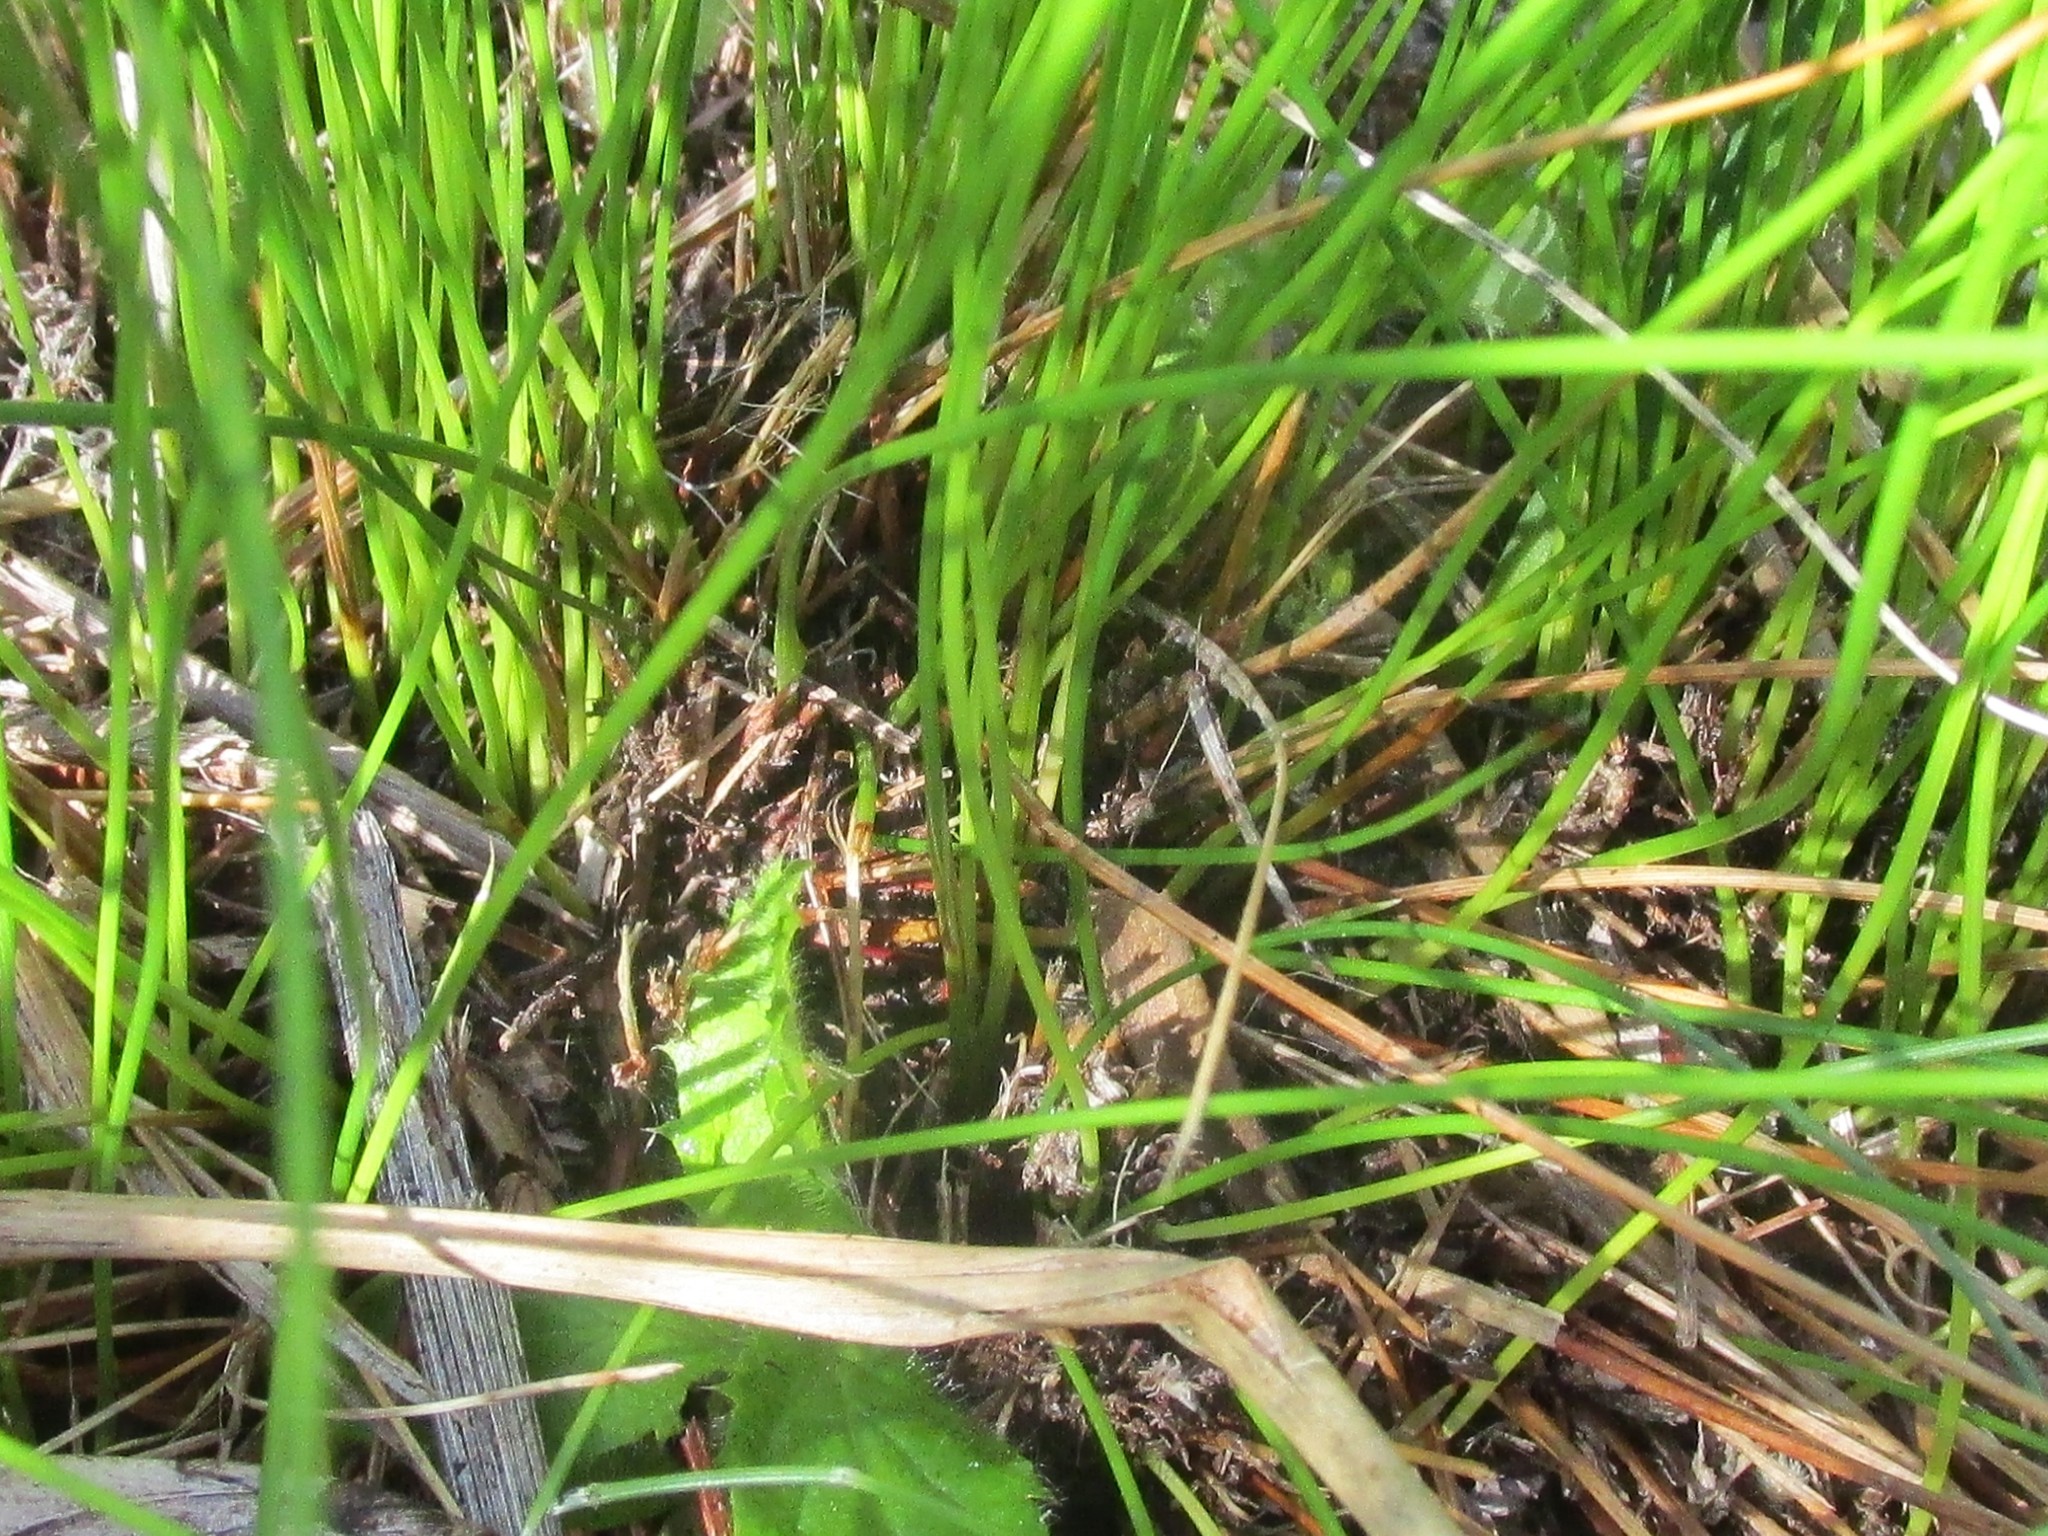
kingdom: Plantae
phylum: Tracheophyta
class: Liliopsida
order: Poales
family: Cyperaceae
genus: Schoenus
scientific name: Schoenus gracillimus
